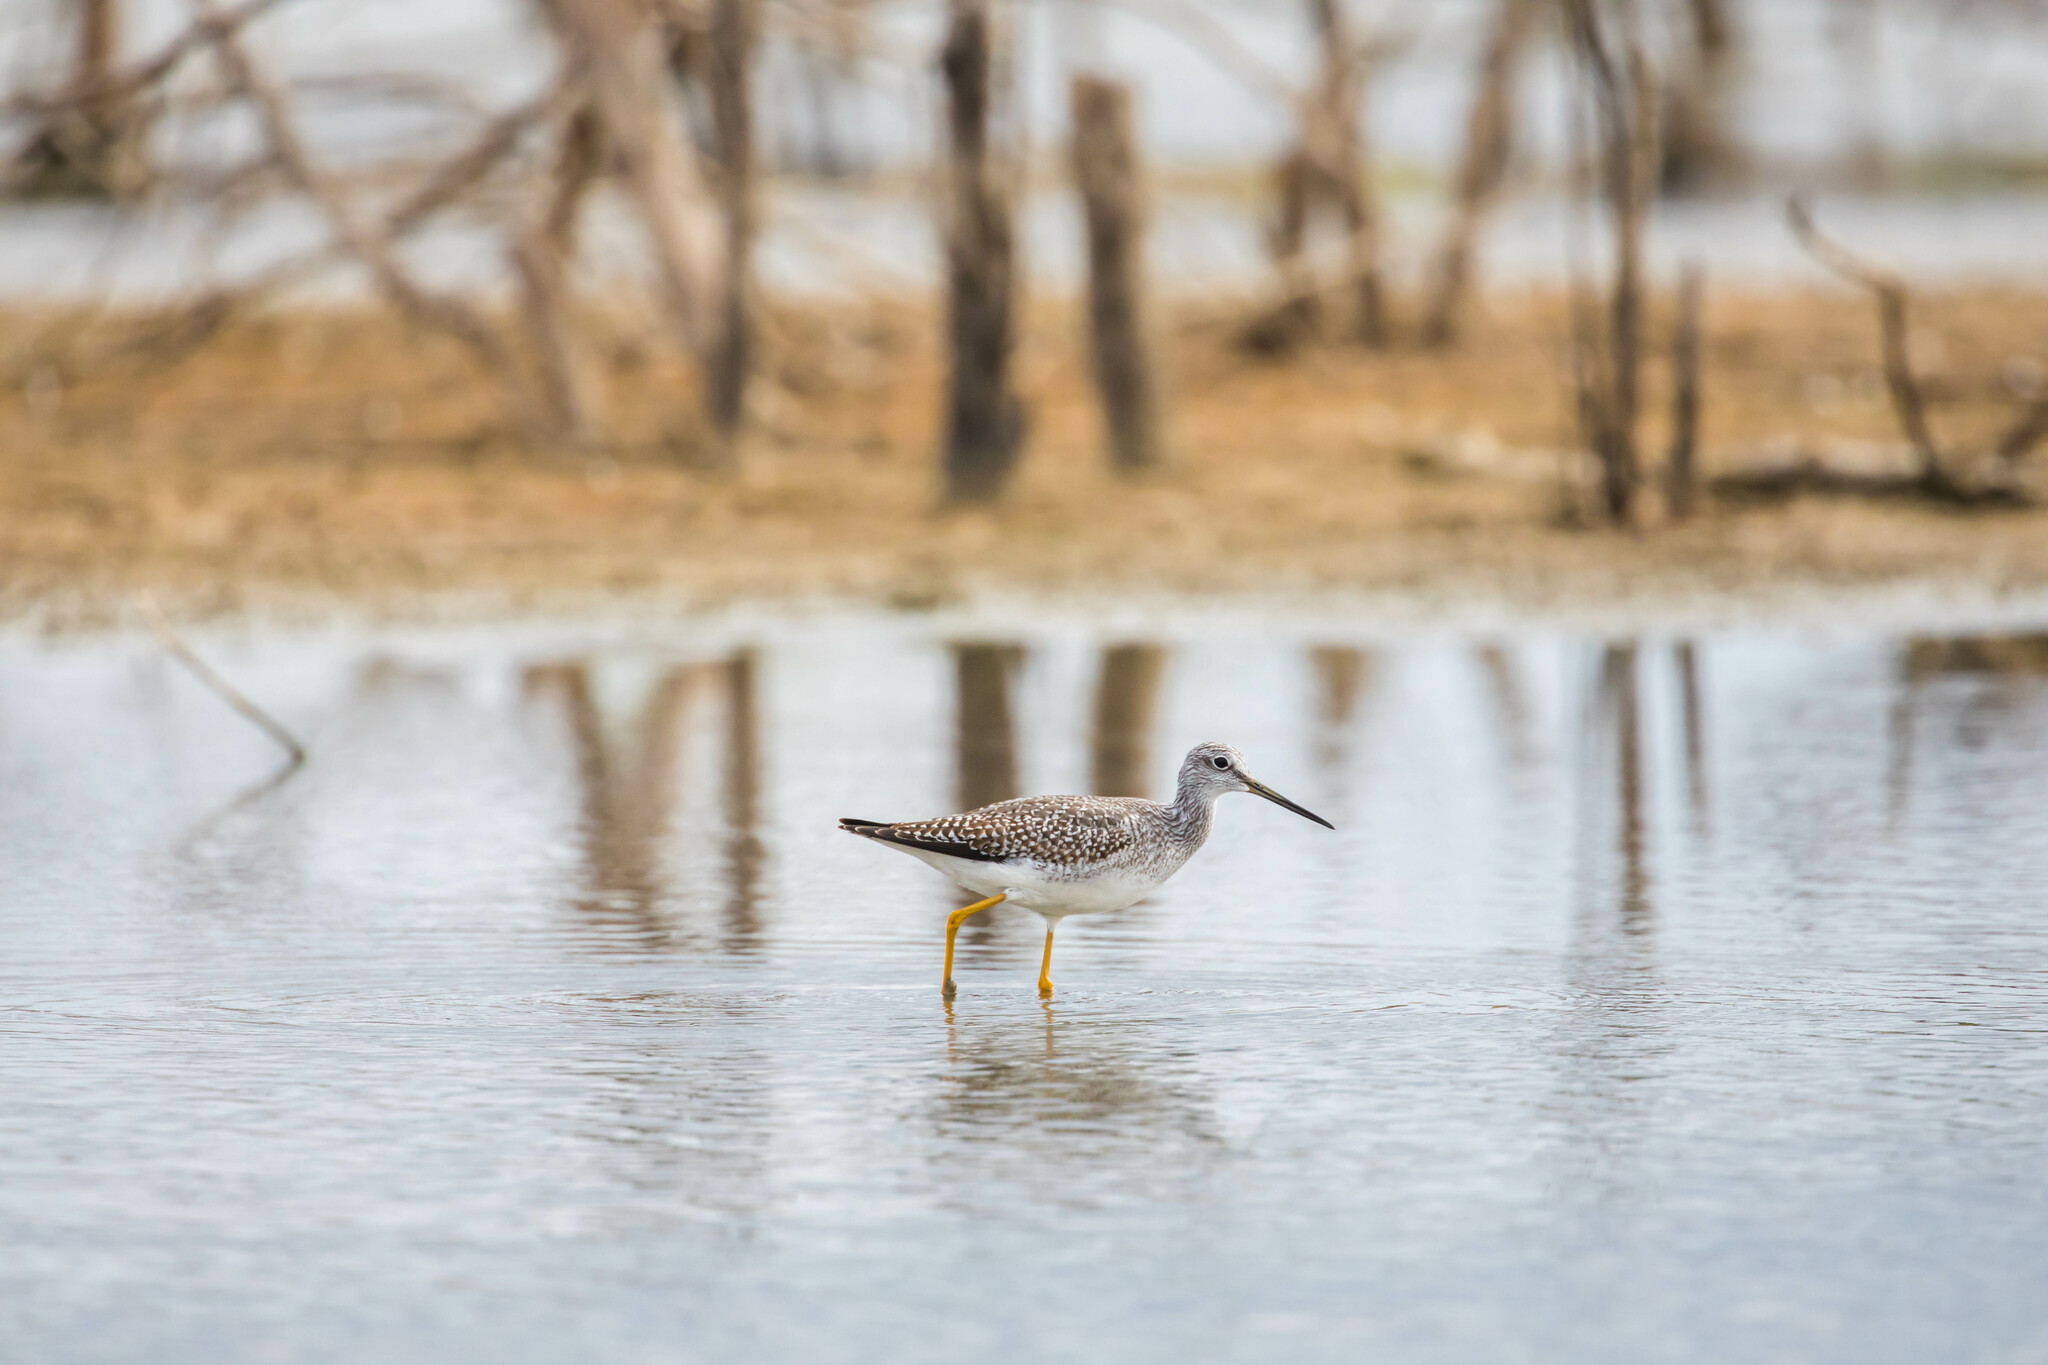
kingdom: Animalia
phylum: Chordata
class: Aves
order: Charadriiformes
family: Scolopacidae
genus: Tringa
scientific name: Tringa melanoleuca
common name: Greater yellowlegs
